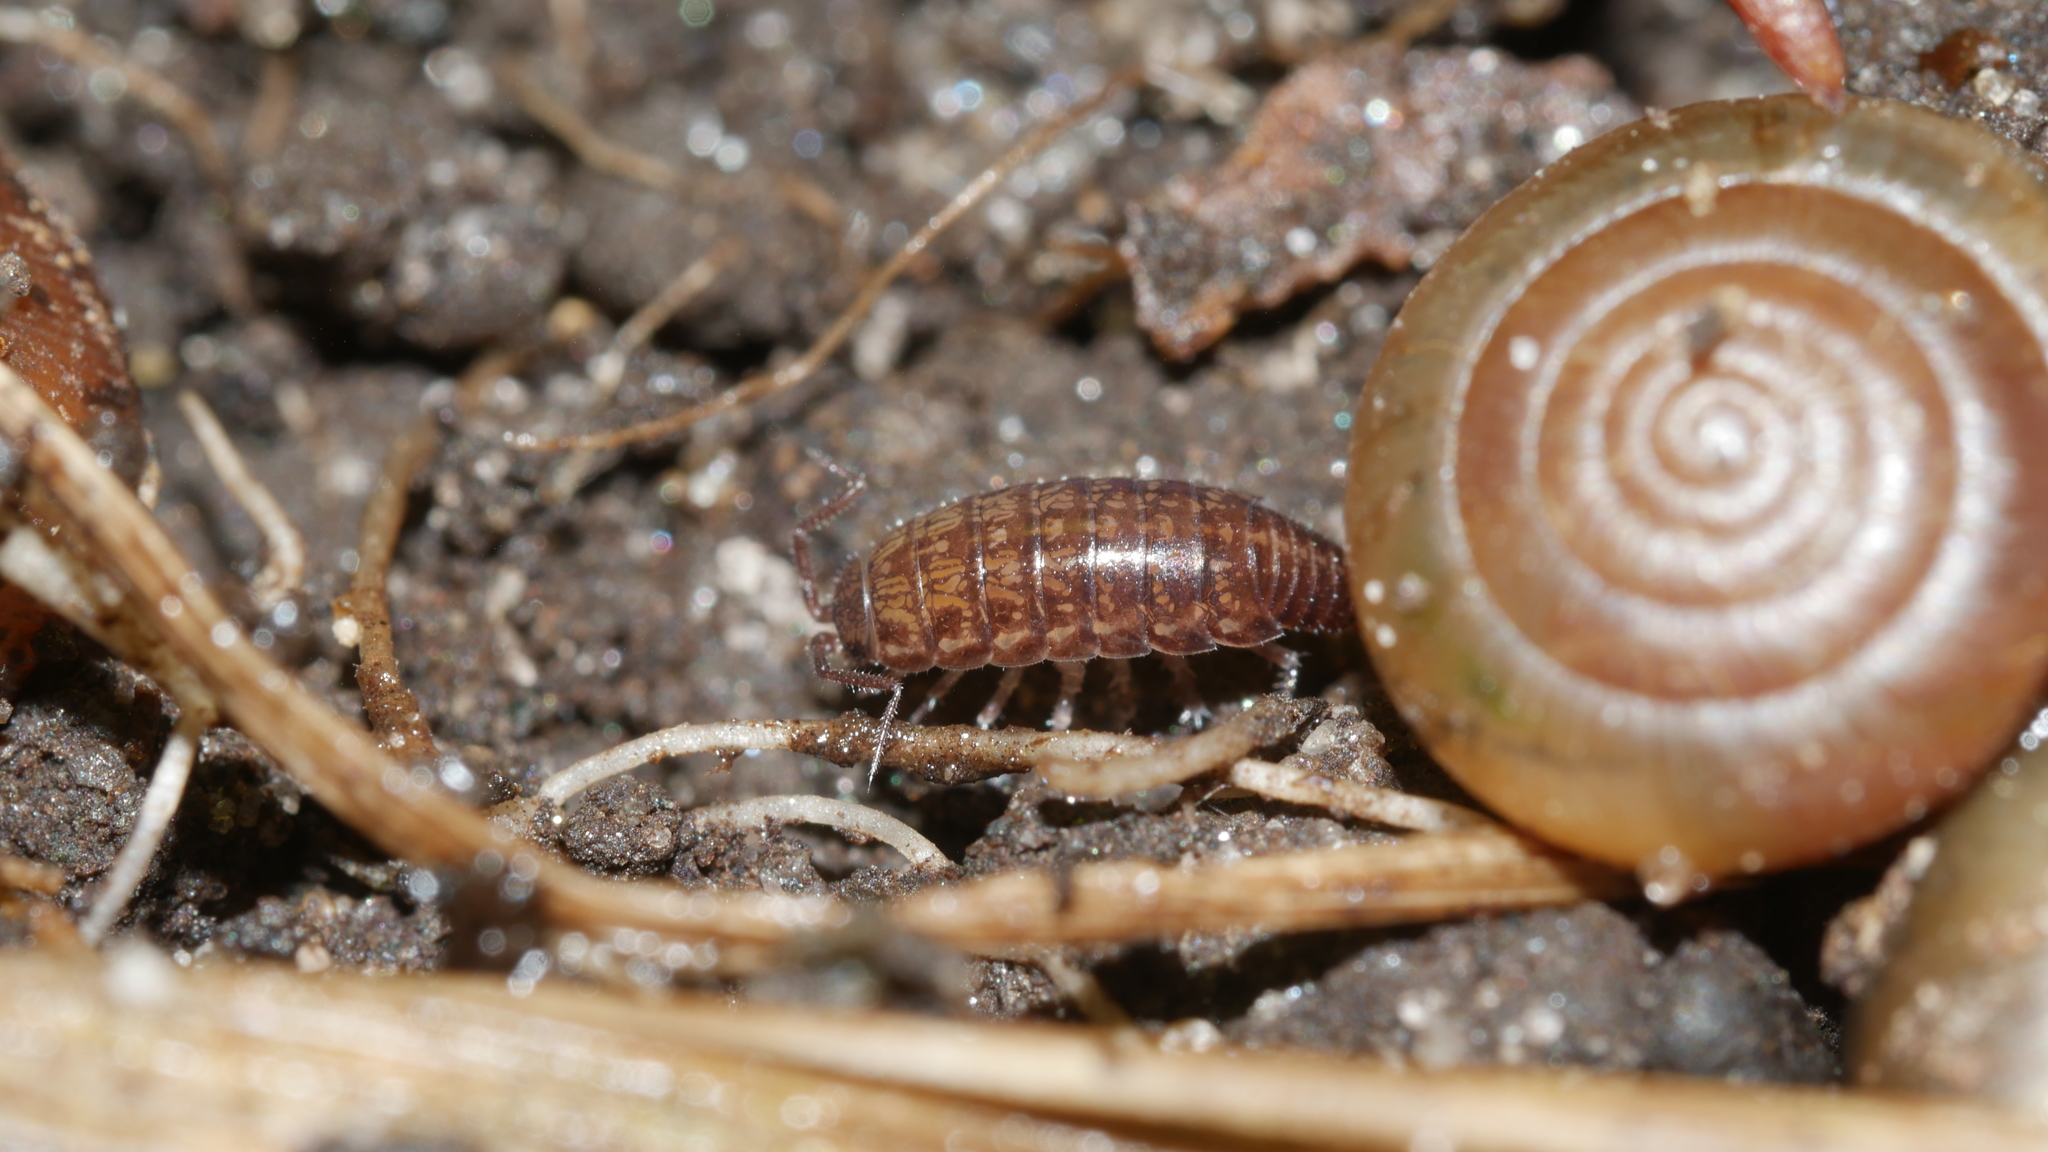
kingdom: Animalia
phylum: Arthropoda
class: Malacostraca
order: Isopoda
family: Philosciidae
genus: Chaetophiloscia
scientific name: Chaetophiloscia sicula
